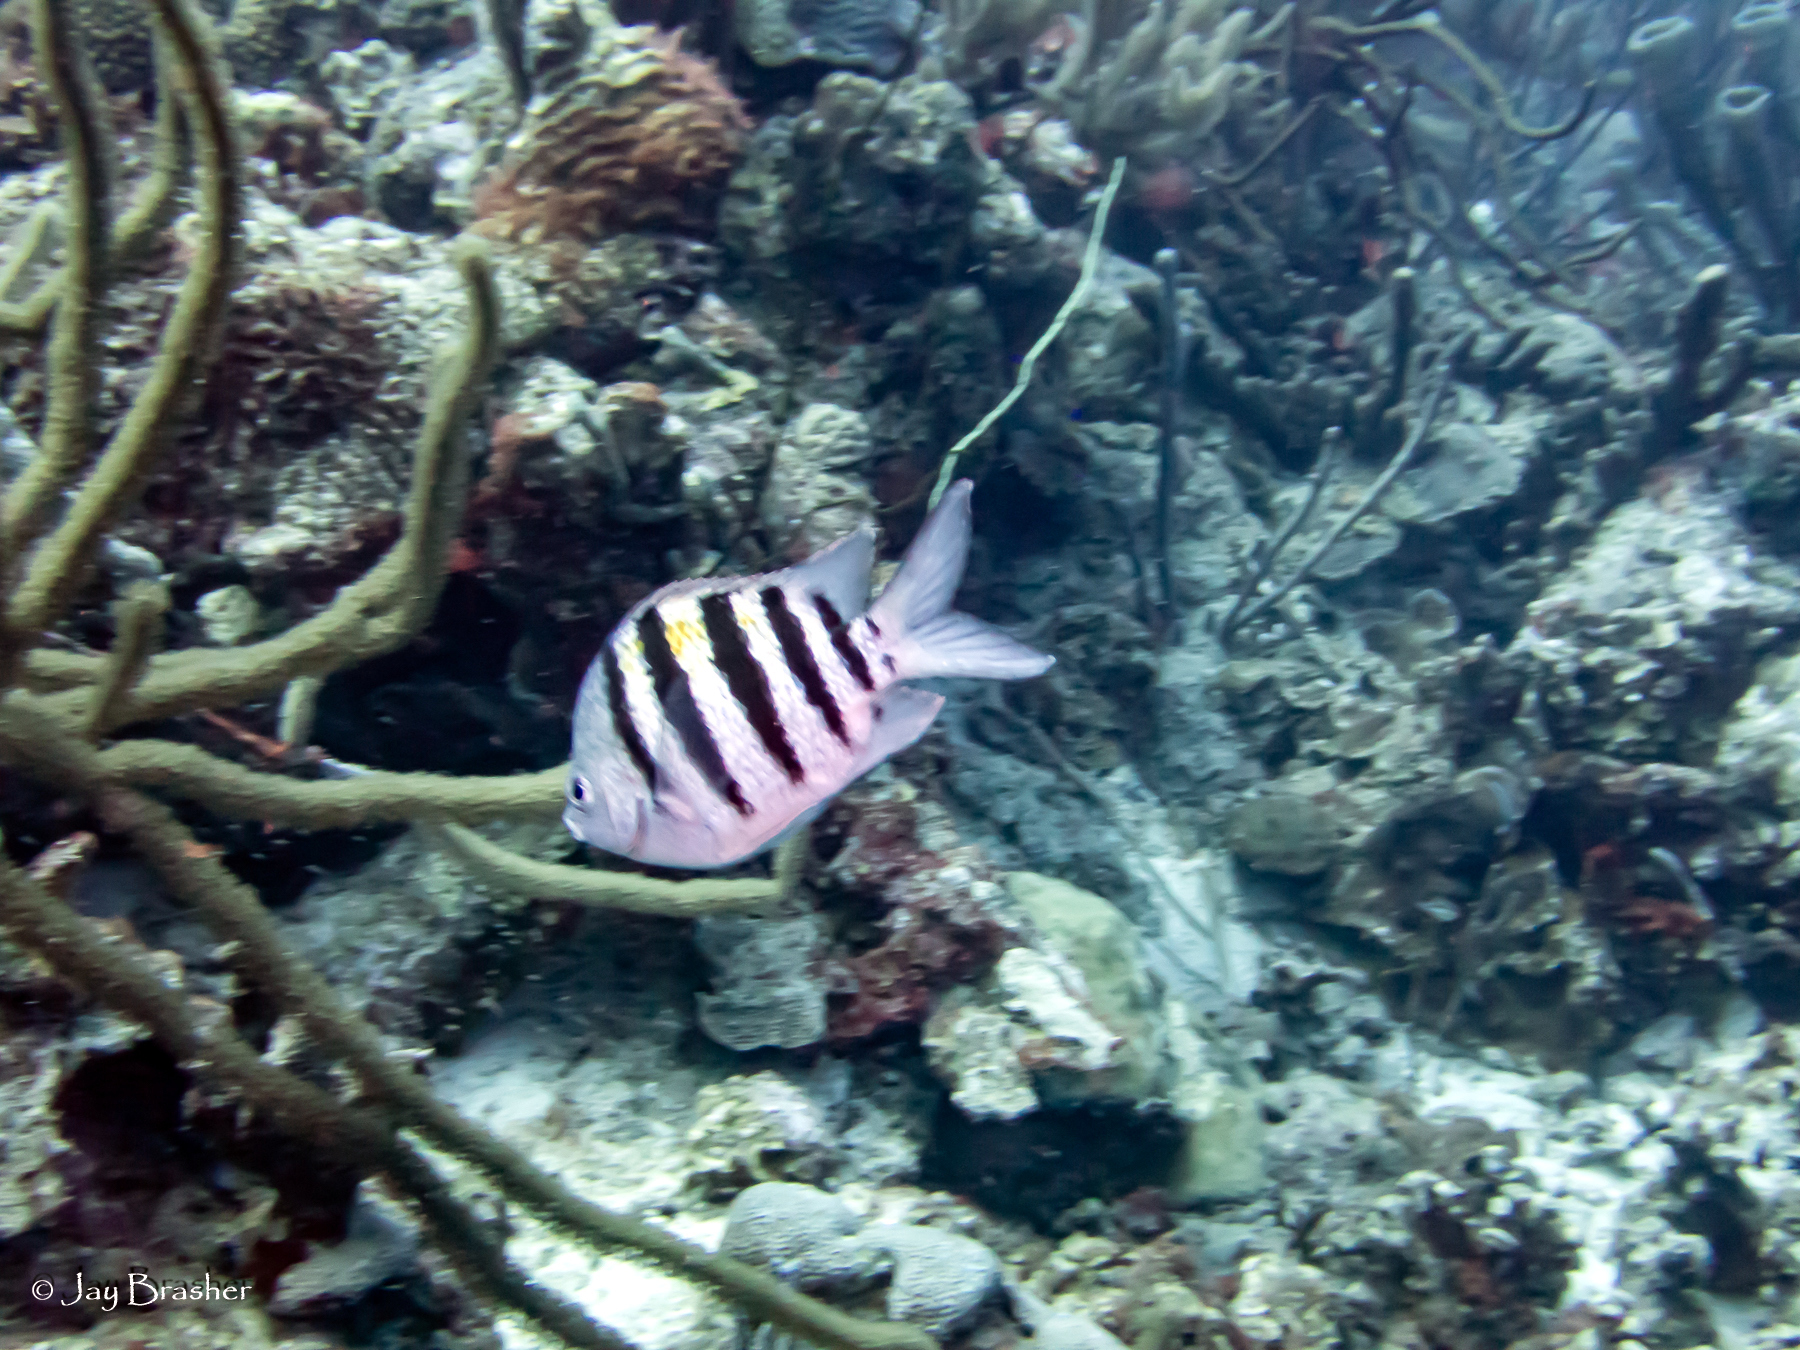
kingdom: Animalia
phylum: Chordata
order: Perciformes
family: Pomacentridae
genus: Abudefduf
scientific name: Abudefduf saxatilis
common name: Sergeant major
